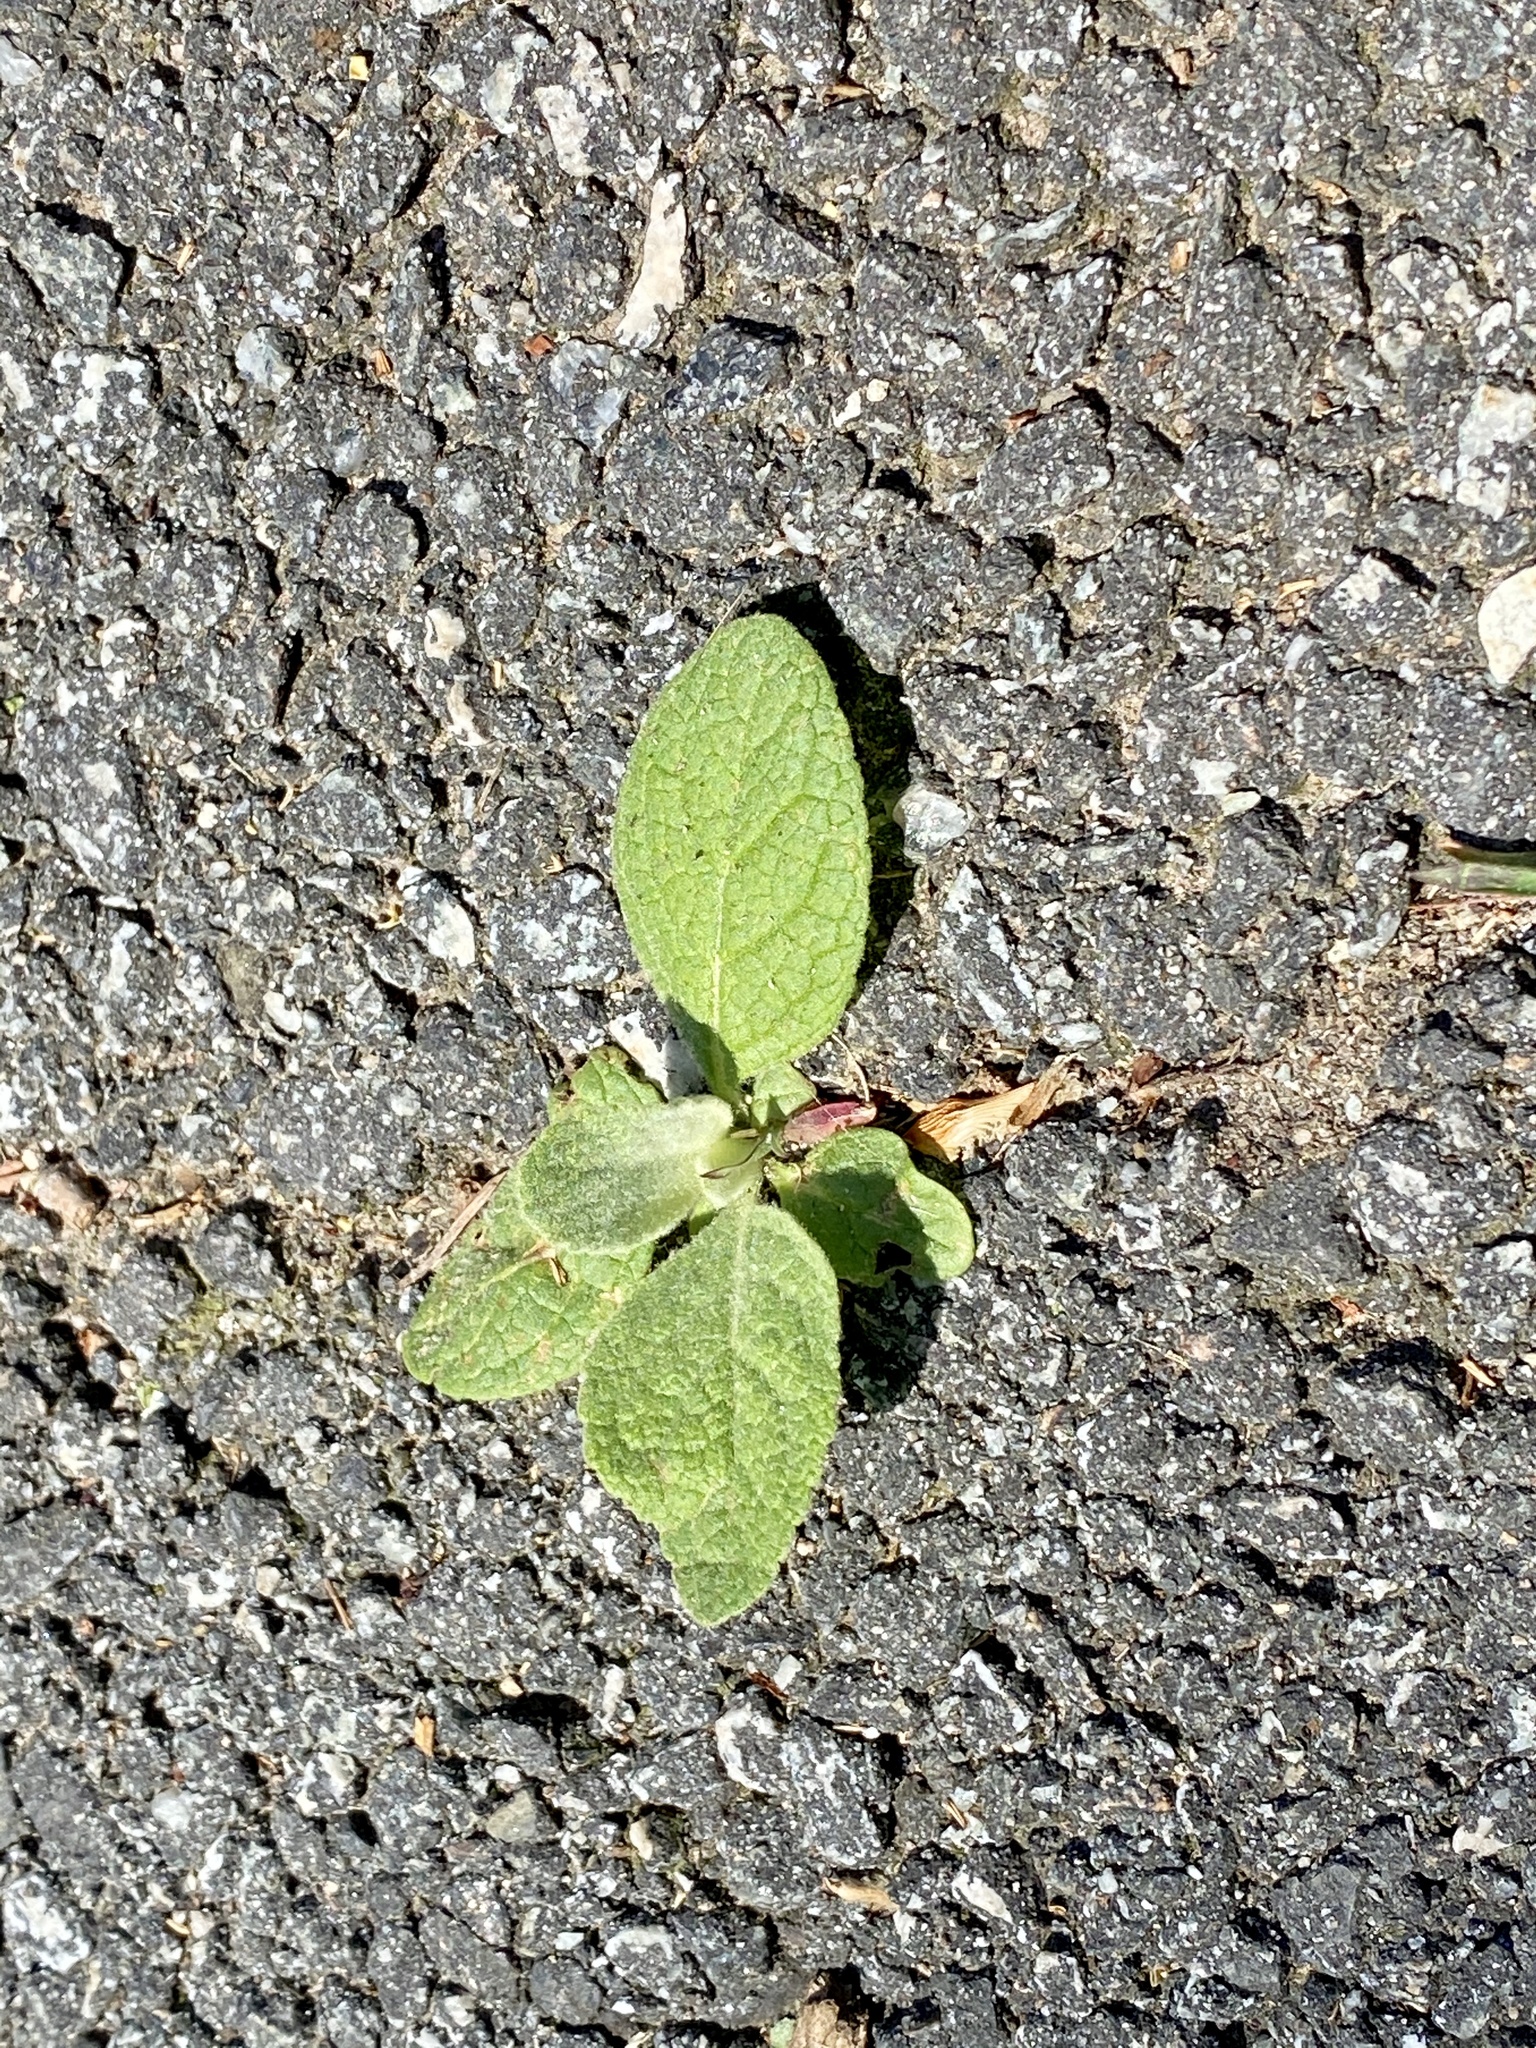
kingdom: Plantae
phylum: Tracheophyta
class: Magnoliopsida
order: Lamiales
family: Scrophulariaceae
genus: Verbascum
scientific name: Verbascum thapsus
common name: Common mullein
